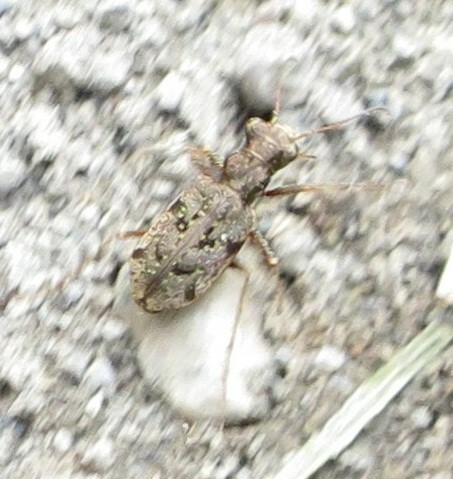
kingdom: Animalia
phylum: Arthropoda
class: Insecta
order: Coleoptera
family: Carabidae
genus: Neocicindela
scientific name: Neocicindela parryi
